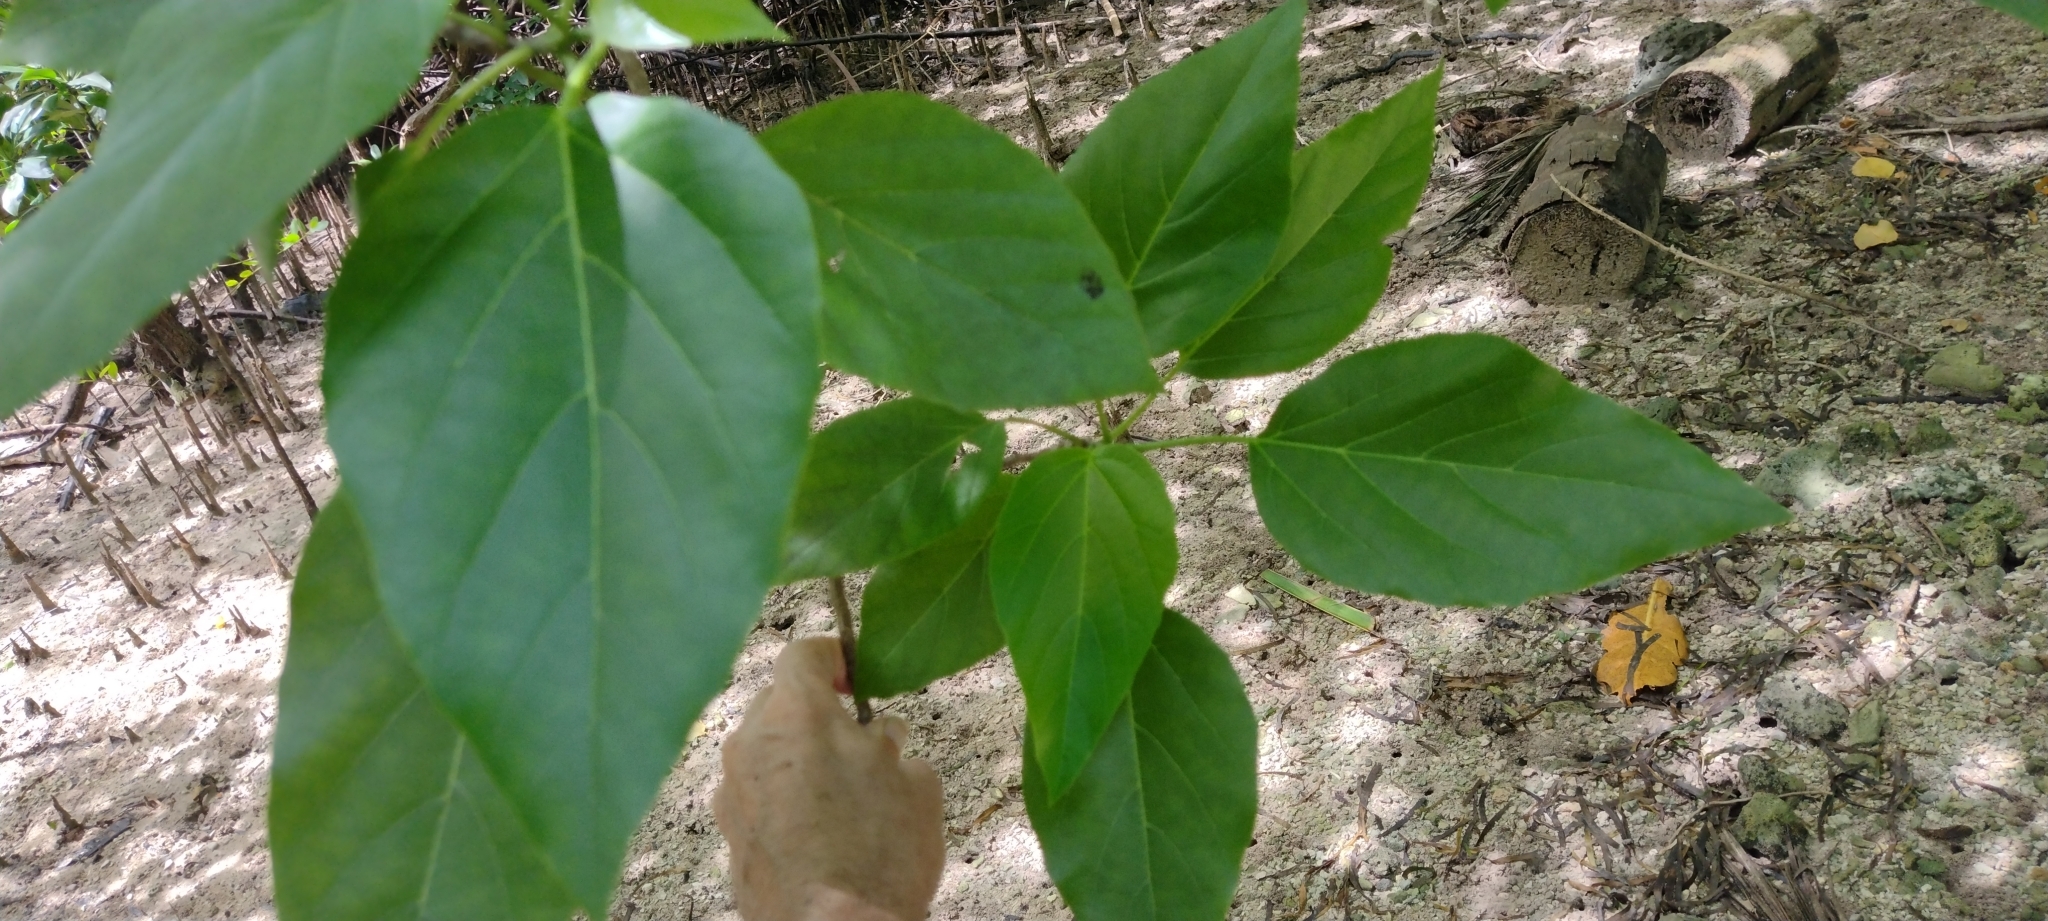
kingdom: Plantae
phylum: Tracheophyta
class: Magnoliopsida
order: Boraginales
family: Cordiaceae
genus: Cordia
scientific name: Cordia subcordata
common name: Mareer
